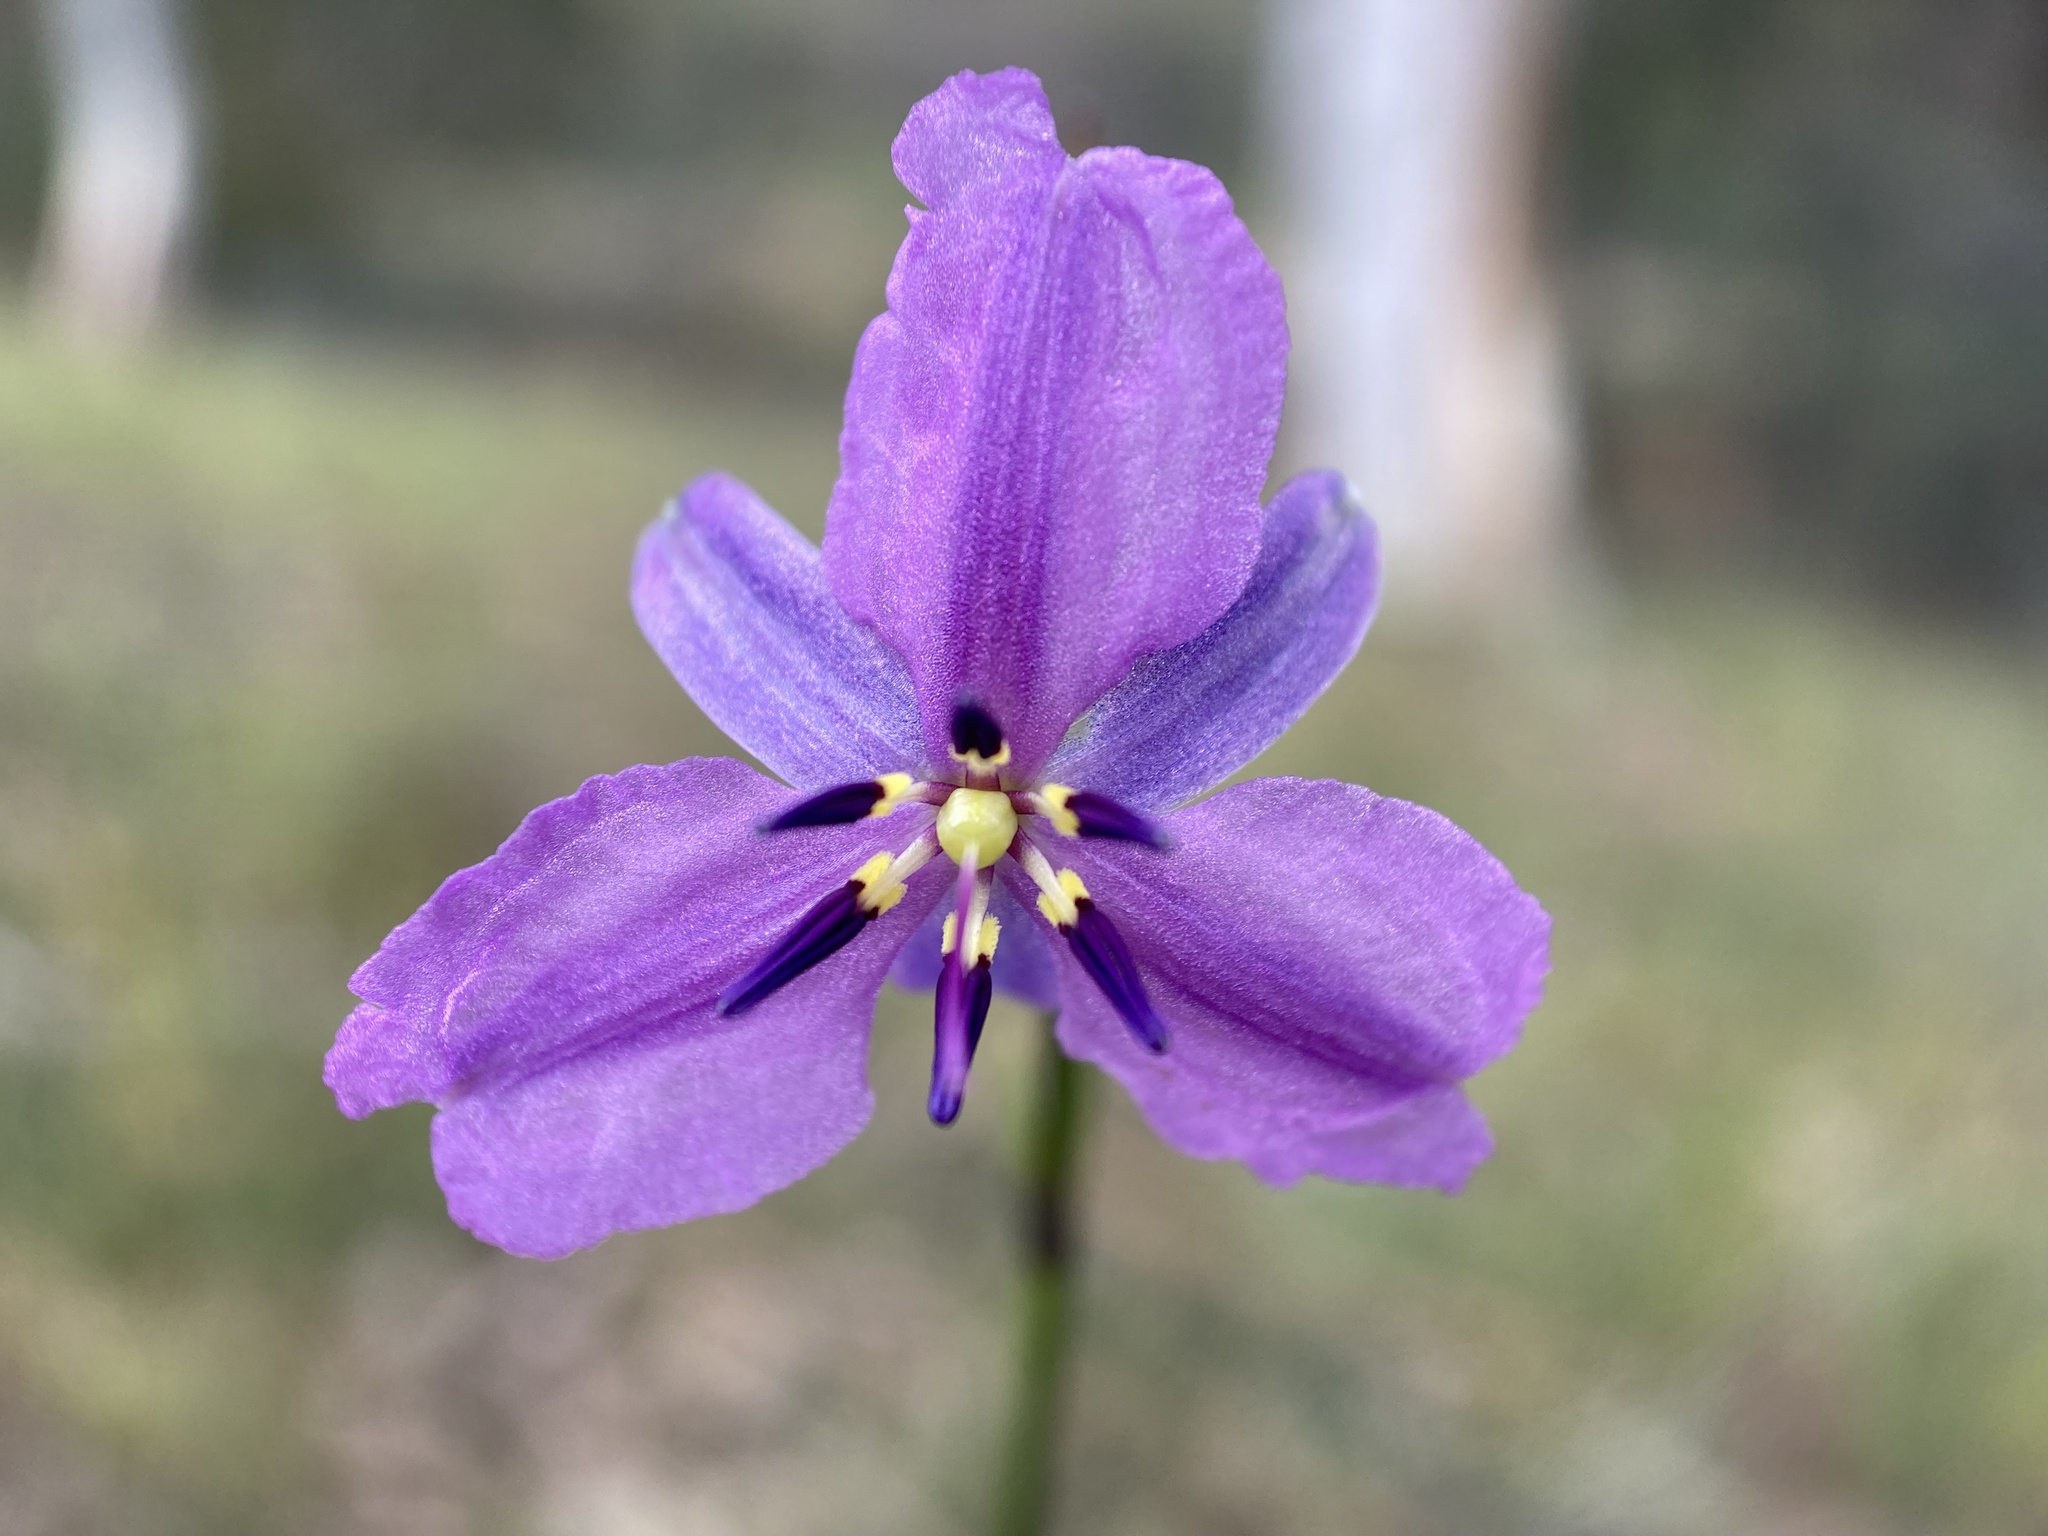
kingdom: Plantae
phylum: Tracheophyta
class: Liliopsida
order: Asparagales
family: Asparagaceae
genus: Arthropodium
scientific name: Arthropodium strictum
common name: Chocolate-lily
